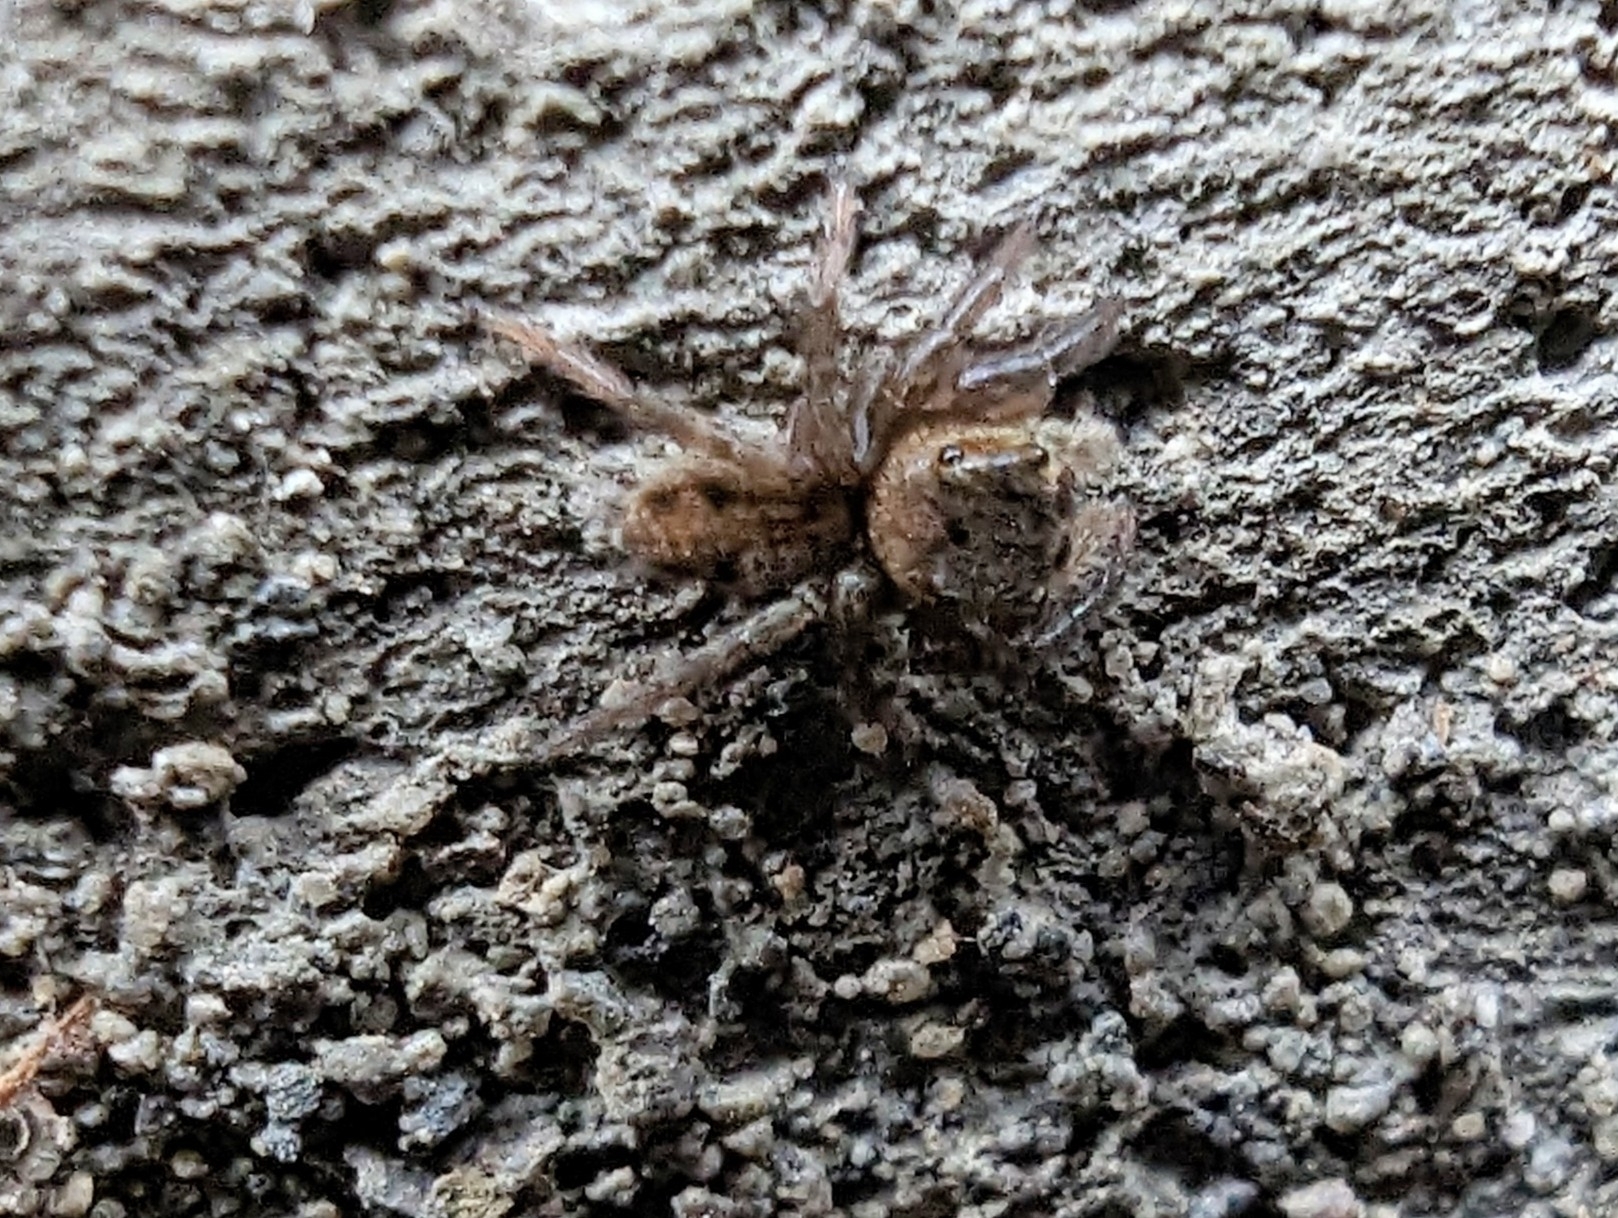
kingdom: Animalia
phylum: Arthropoda
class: Arachnida
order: Araneae
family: Salticidae
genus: Hasarius
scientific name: Hasarius adansoni
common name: Jumping spider
